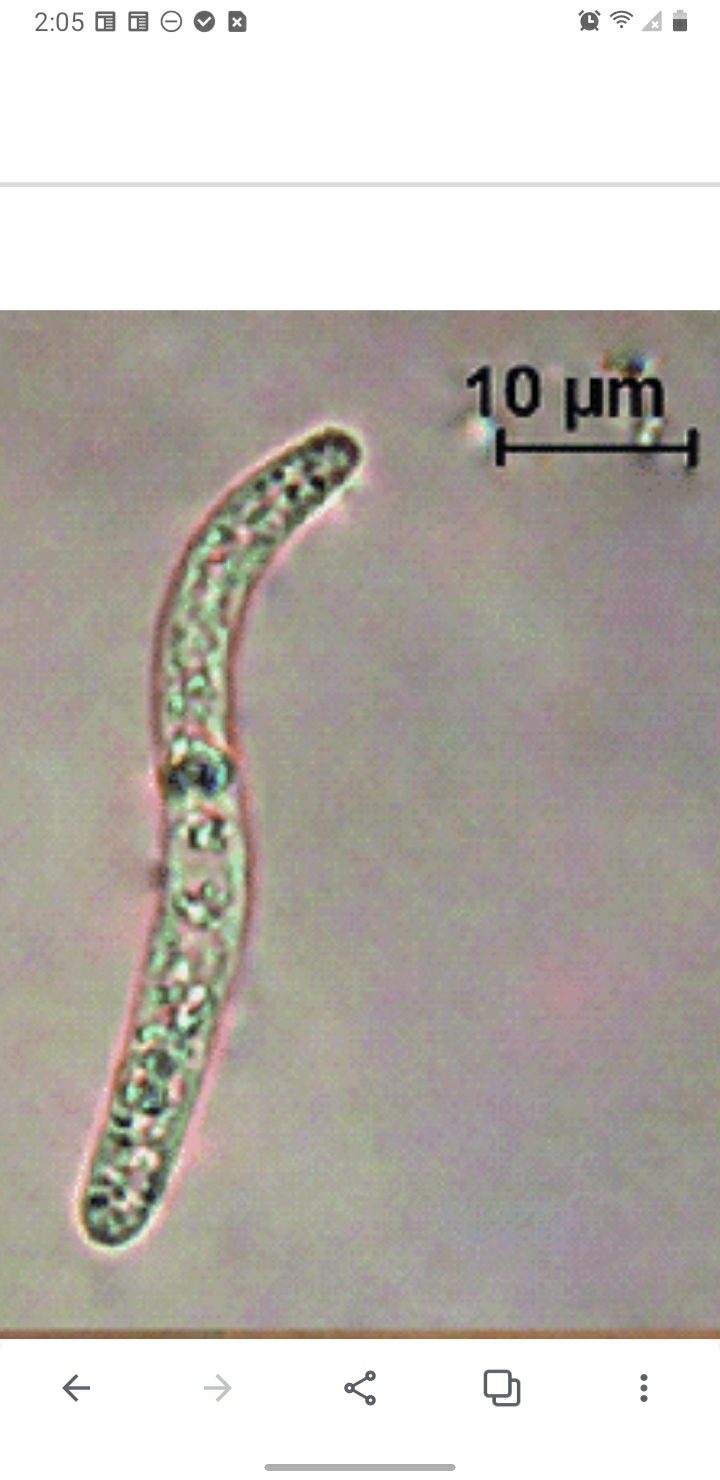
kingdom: Fungi
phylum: Ascomycota
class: Sordariomycetes
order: Sordariales
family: Lasiosphaeriaceae
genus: Lasiosphaeria
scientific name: Lasiosphaeria ovina
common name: Woolly woodwart
